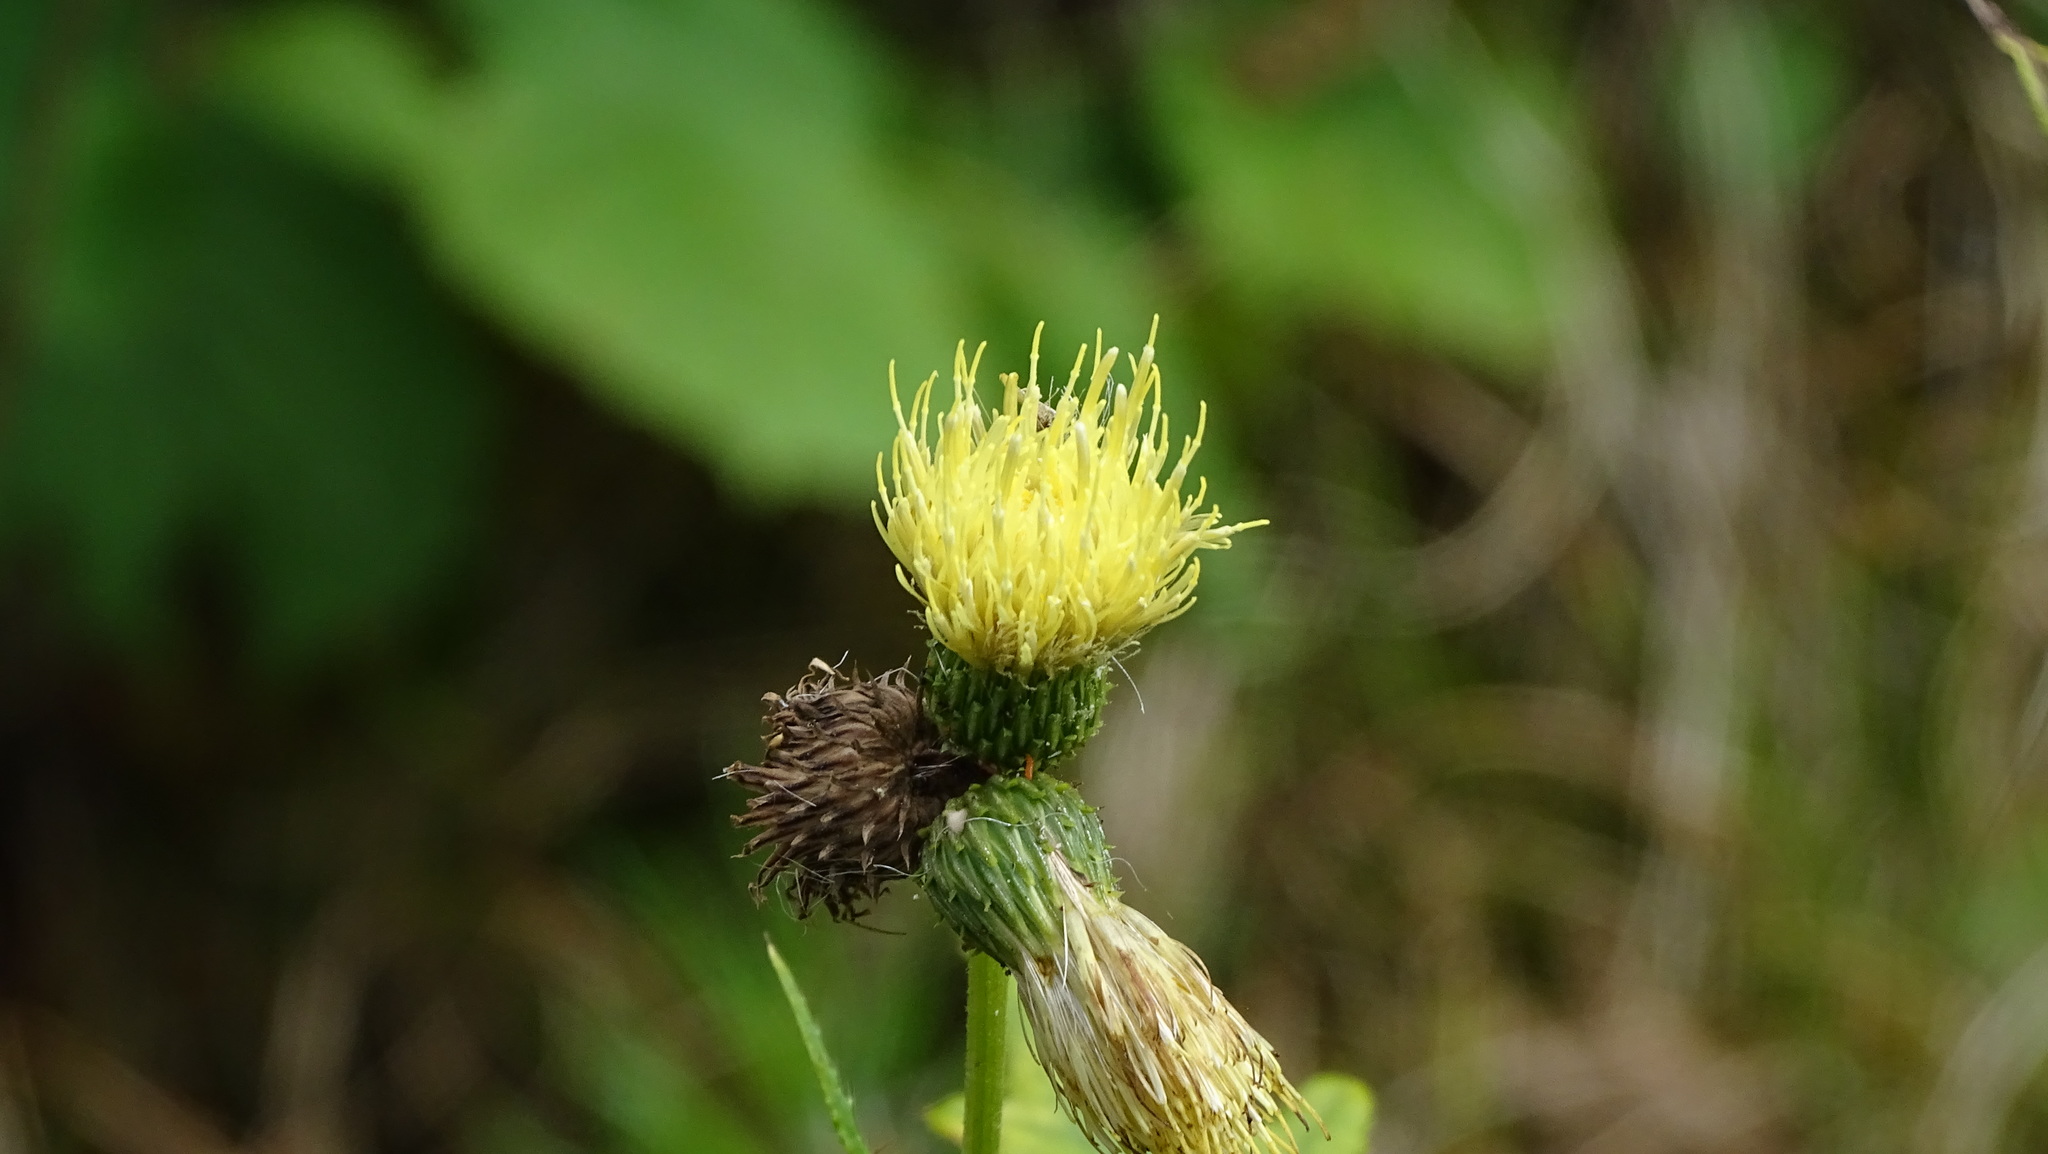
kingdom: Plantae
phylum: Tracheophyta
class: Magnoliopsida
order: Asterales
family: Asteraceae
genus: Cirsium
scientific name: Cirsium oleraceum
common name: Cabbage thistle
